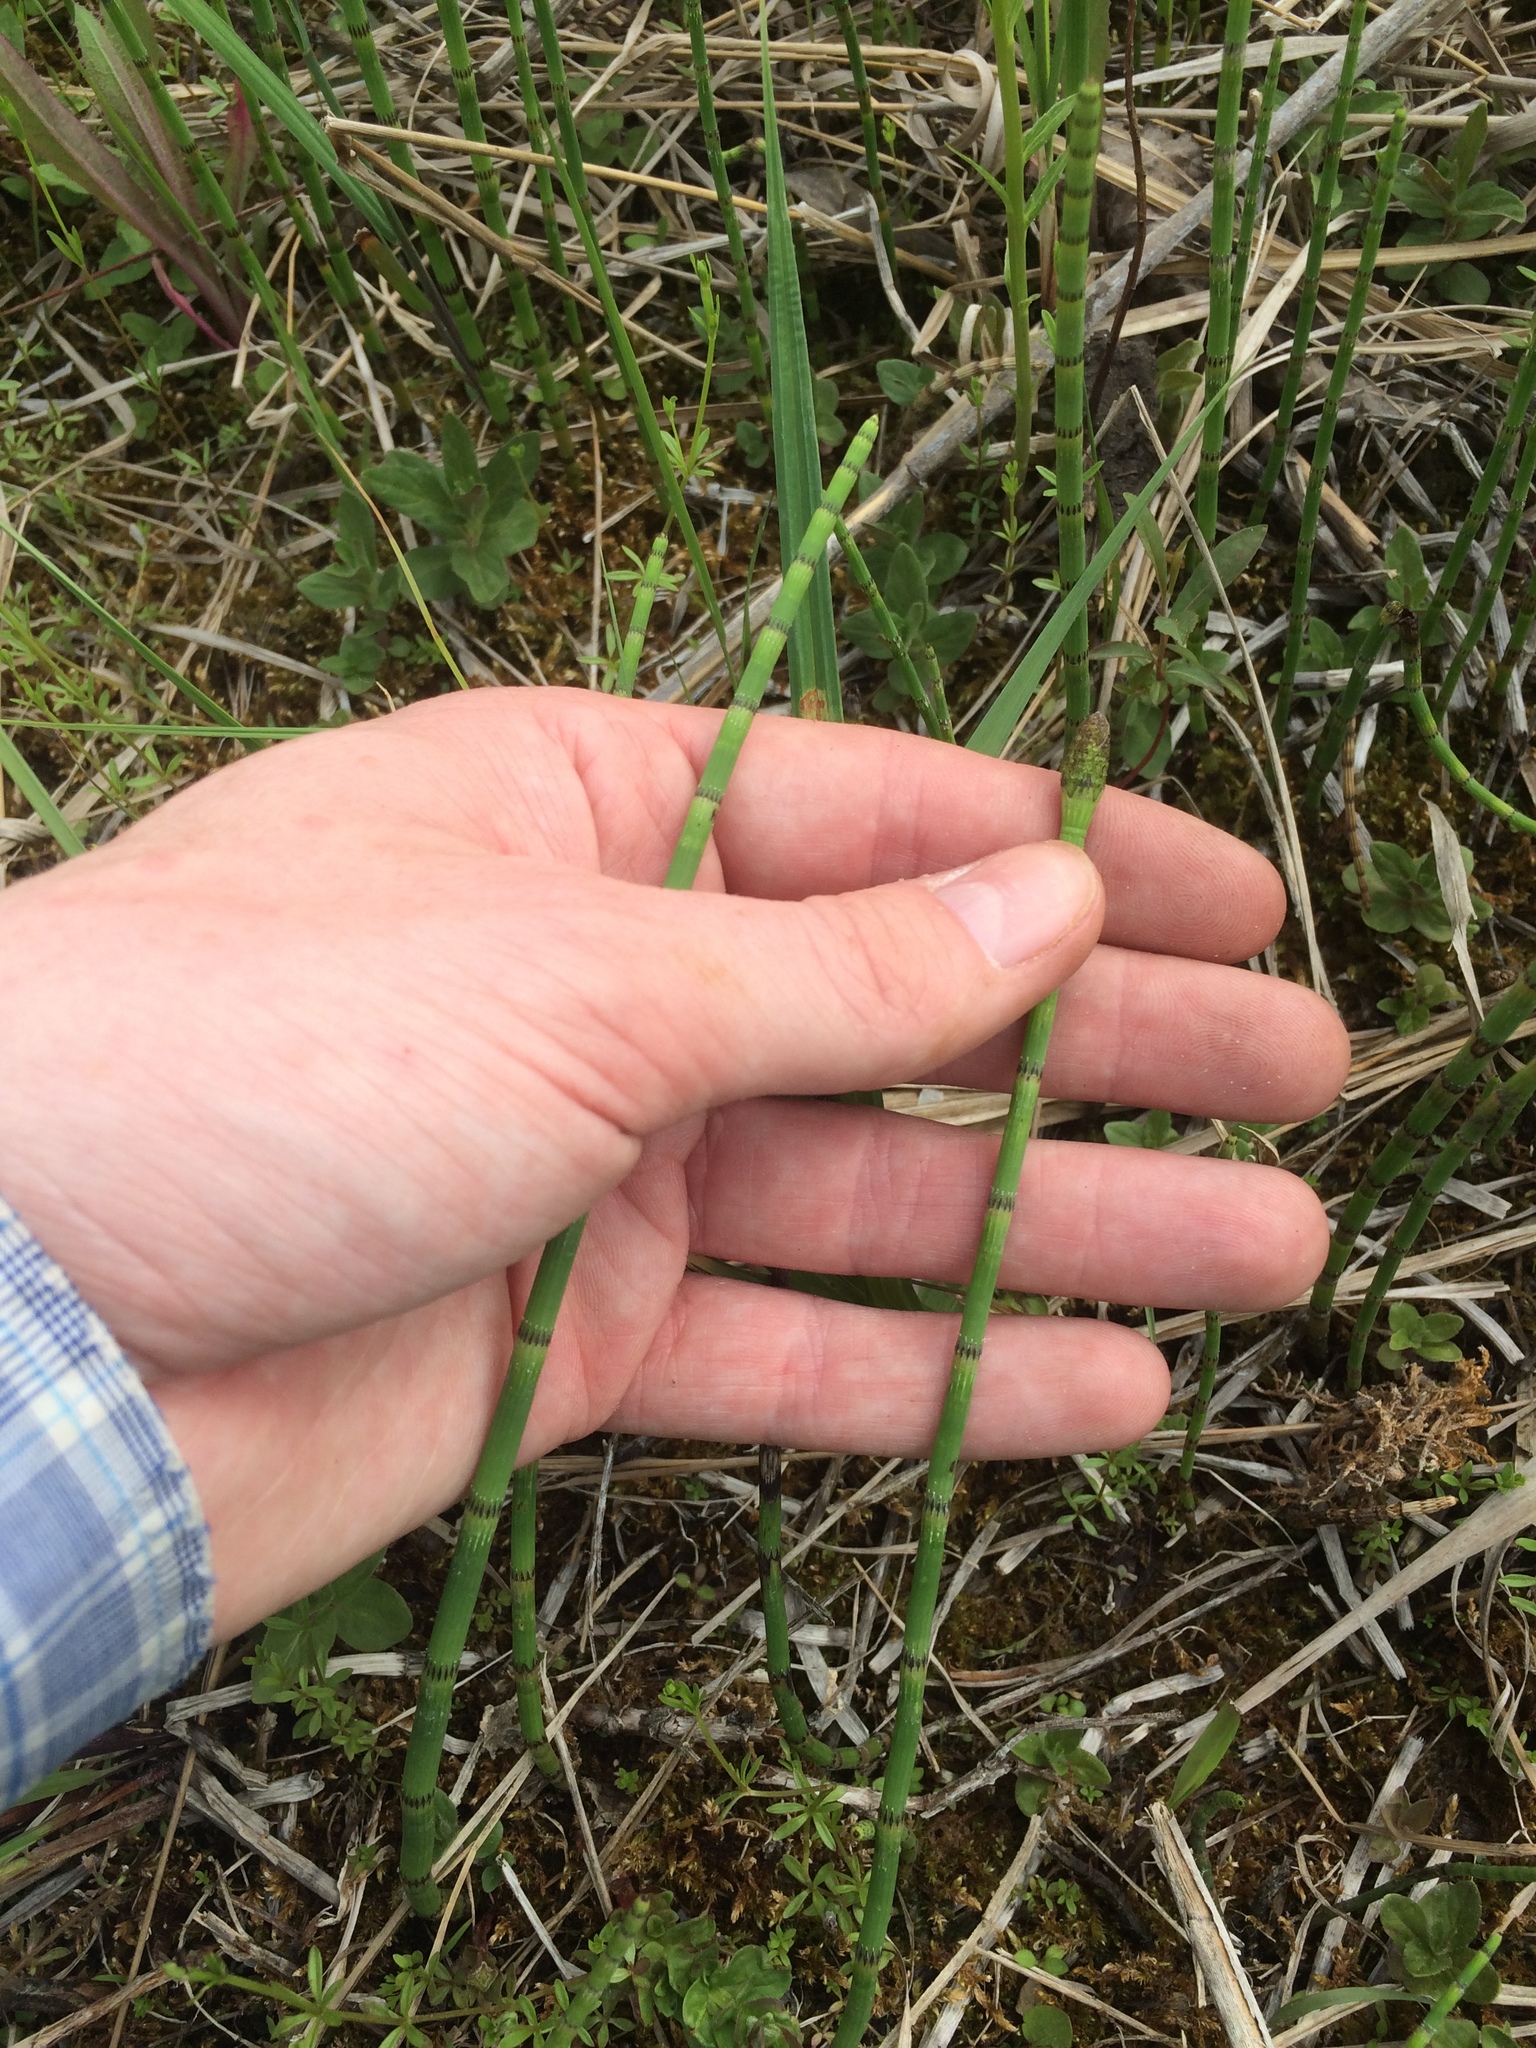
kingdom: Plantae
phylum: Tracheophyta
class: Polypodiopsida
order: Equisetales
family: Equisetaceae
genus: Equisetum
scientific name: Equisetum fluviatile
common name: Water horsetail
